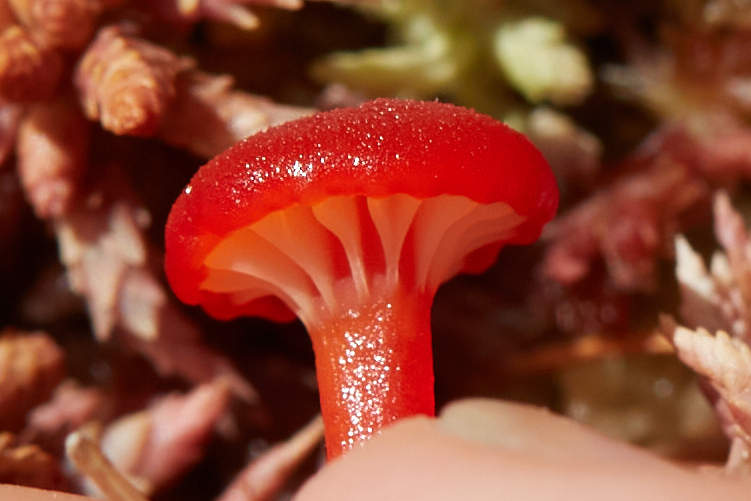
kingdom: Fungi
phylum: Basidiomycota
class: Agaricomycetes
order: Agaricales
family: Hygrophoraceae
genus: Hygrocybe
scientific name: Hygrocybe coccineocrenata
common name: Bog waxcap
